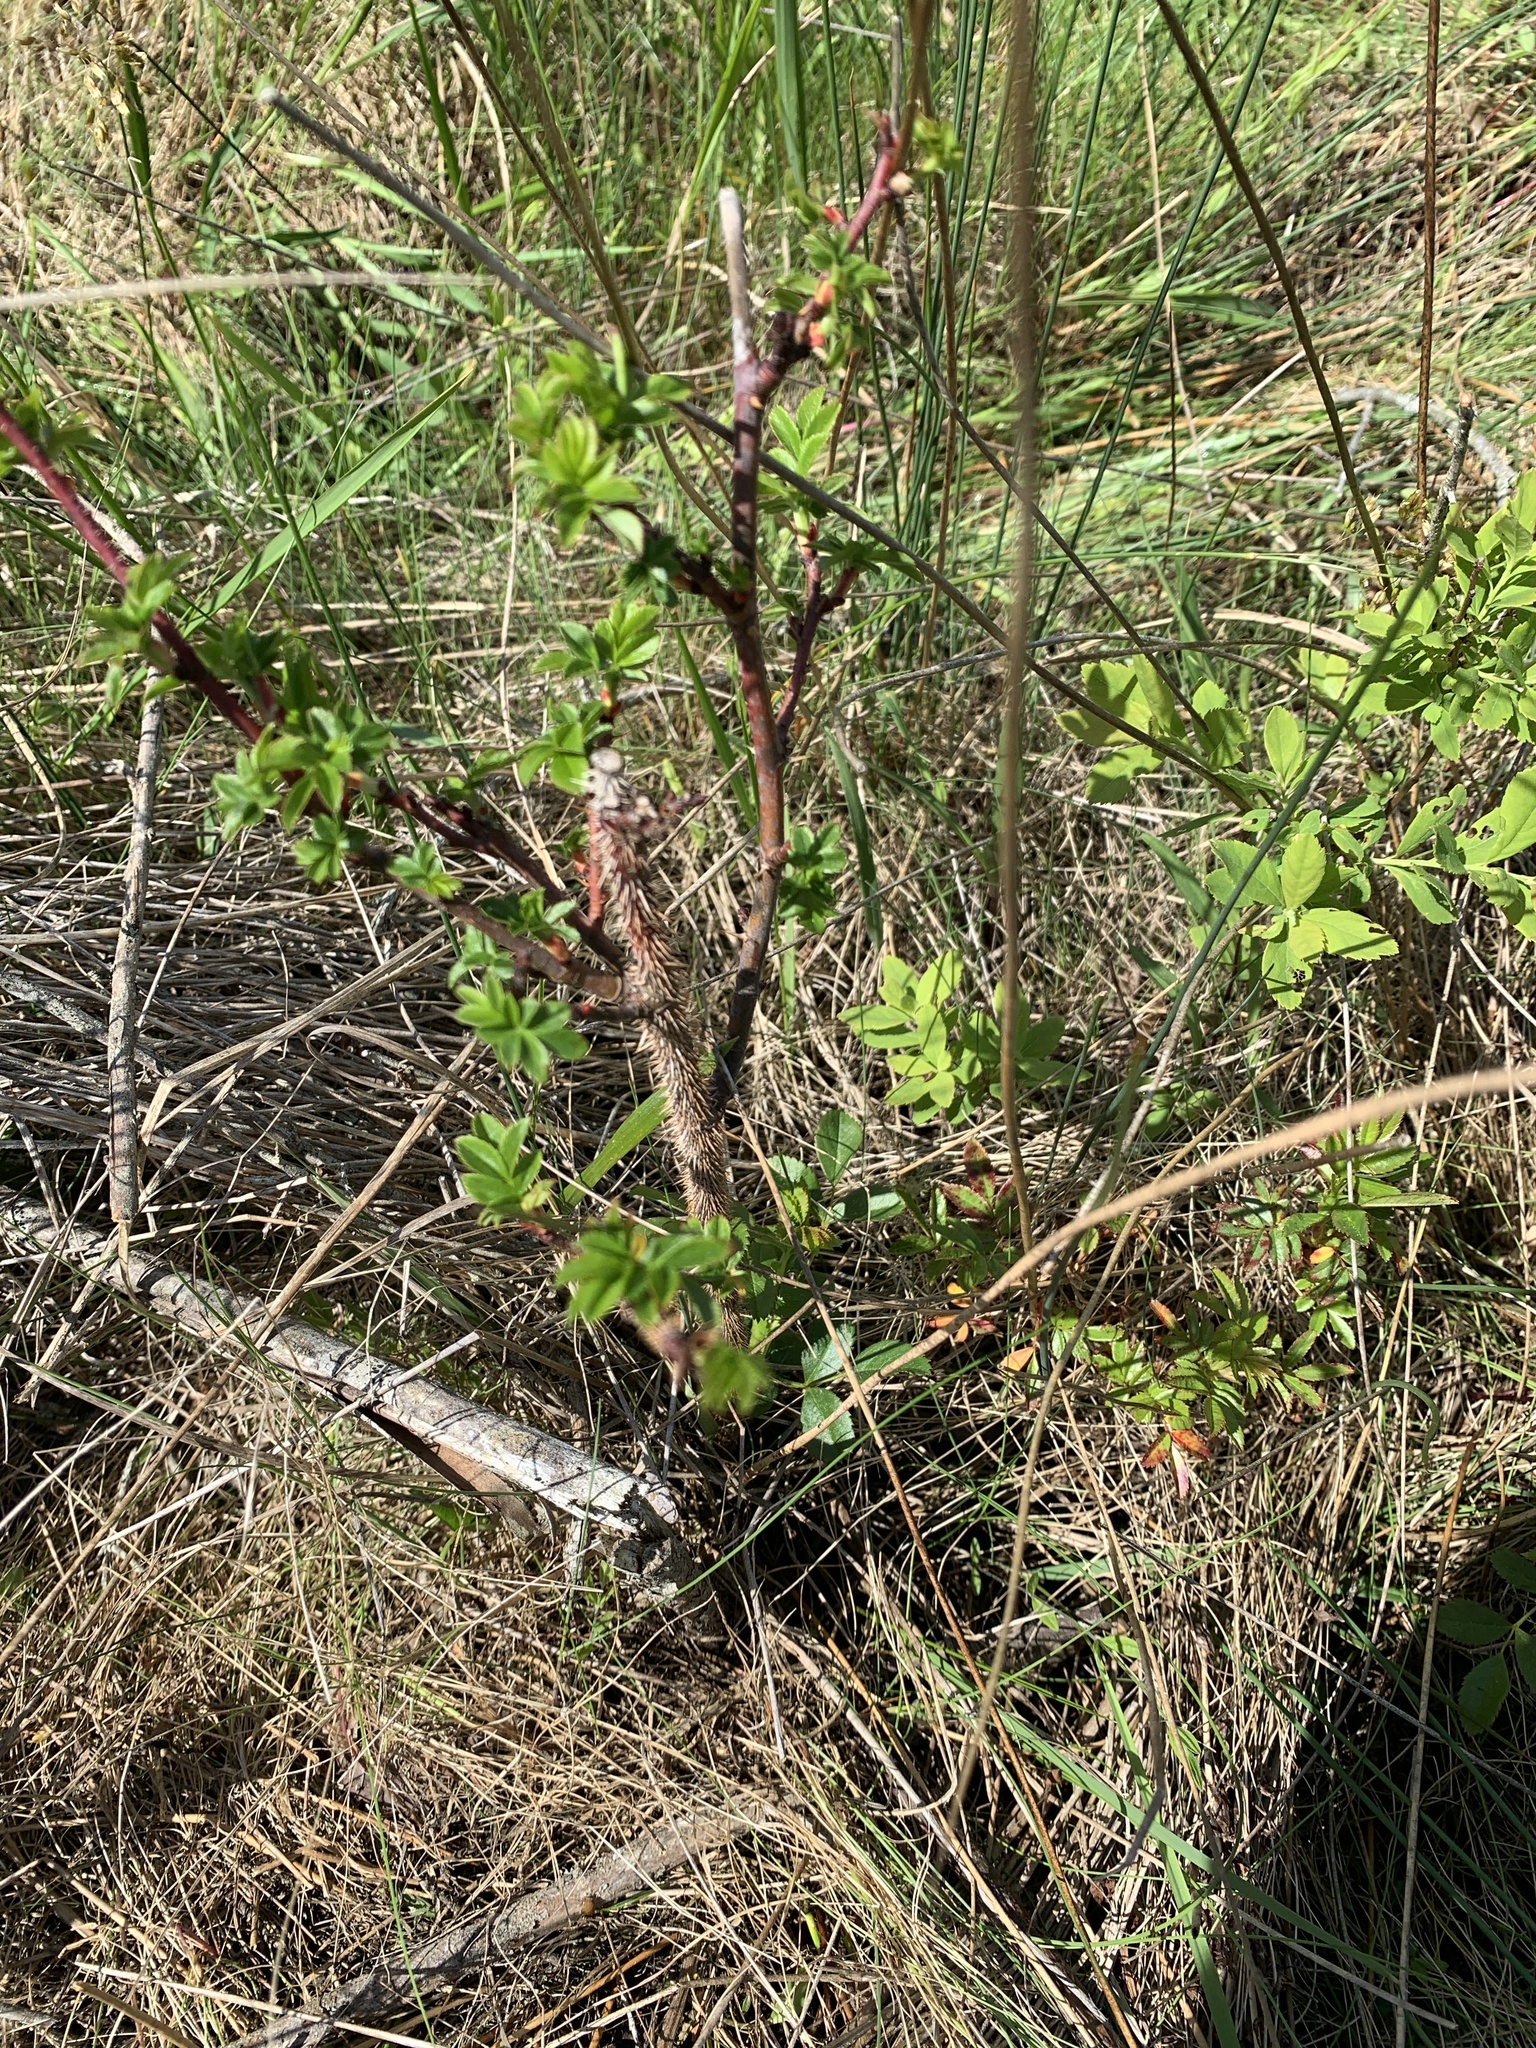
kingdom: Plantae
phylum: Tracheophyta
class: Magnoliopsida
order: Rosales
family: Rosaceae
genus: Rosa
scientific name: Rosa rugosa
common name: Japanese rose
